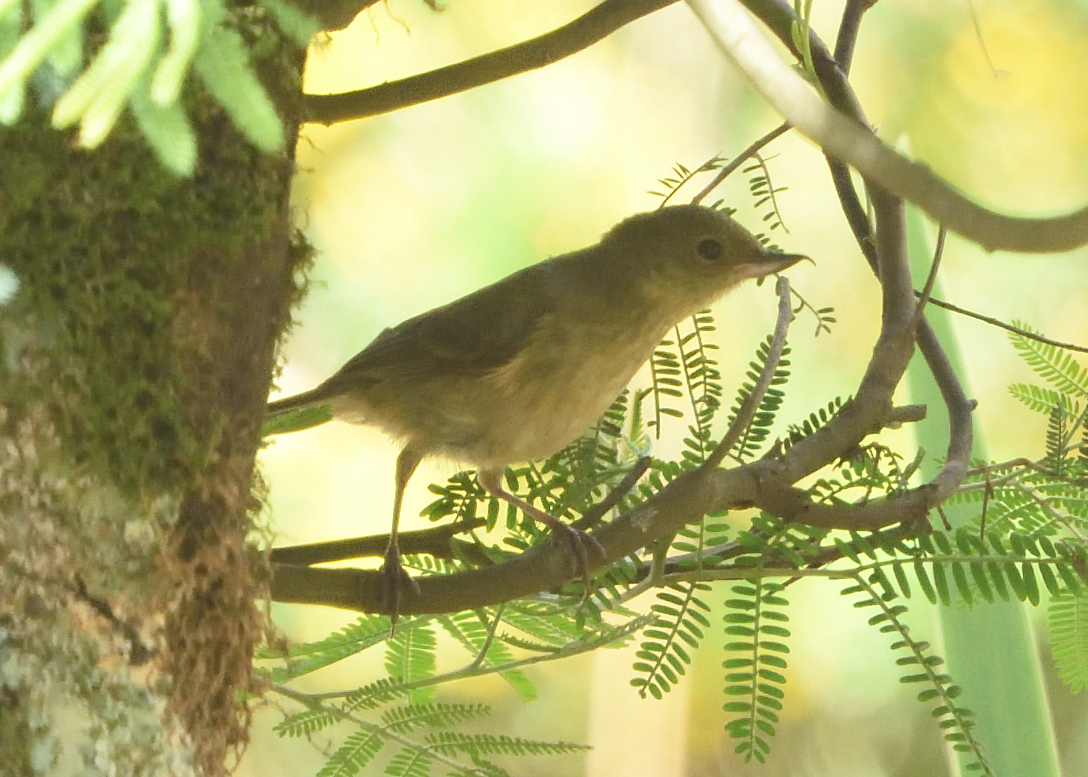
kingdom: Animalia
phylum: Chordata
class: Aves
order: Passeriformes
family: Thraupidae
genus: Diglossa
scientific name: Diglossa sittoides
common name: Rusty flowerpiercer
